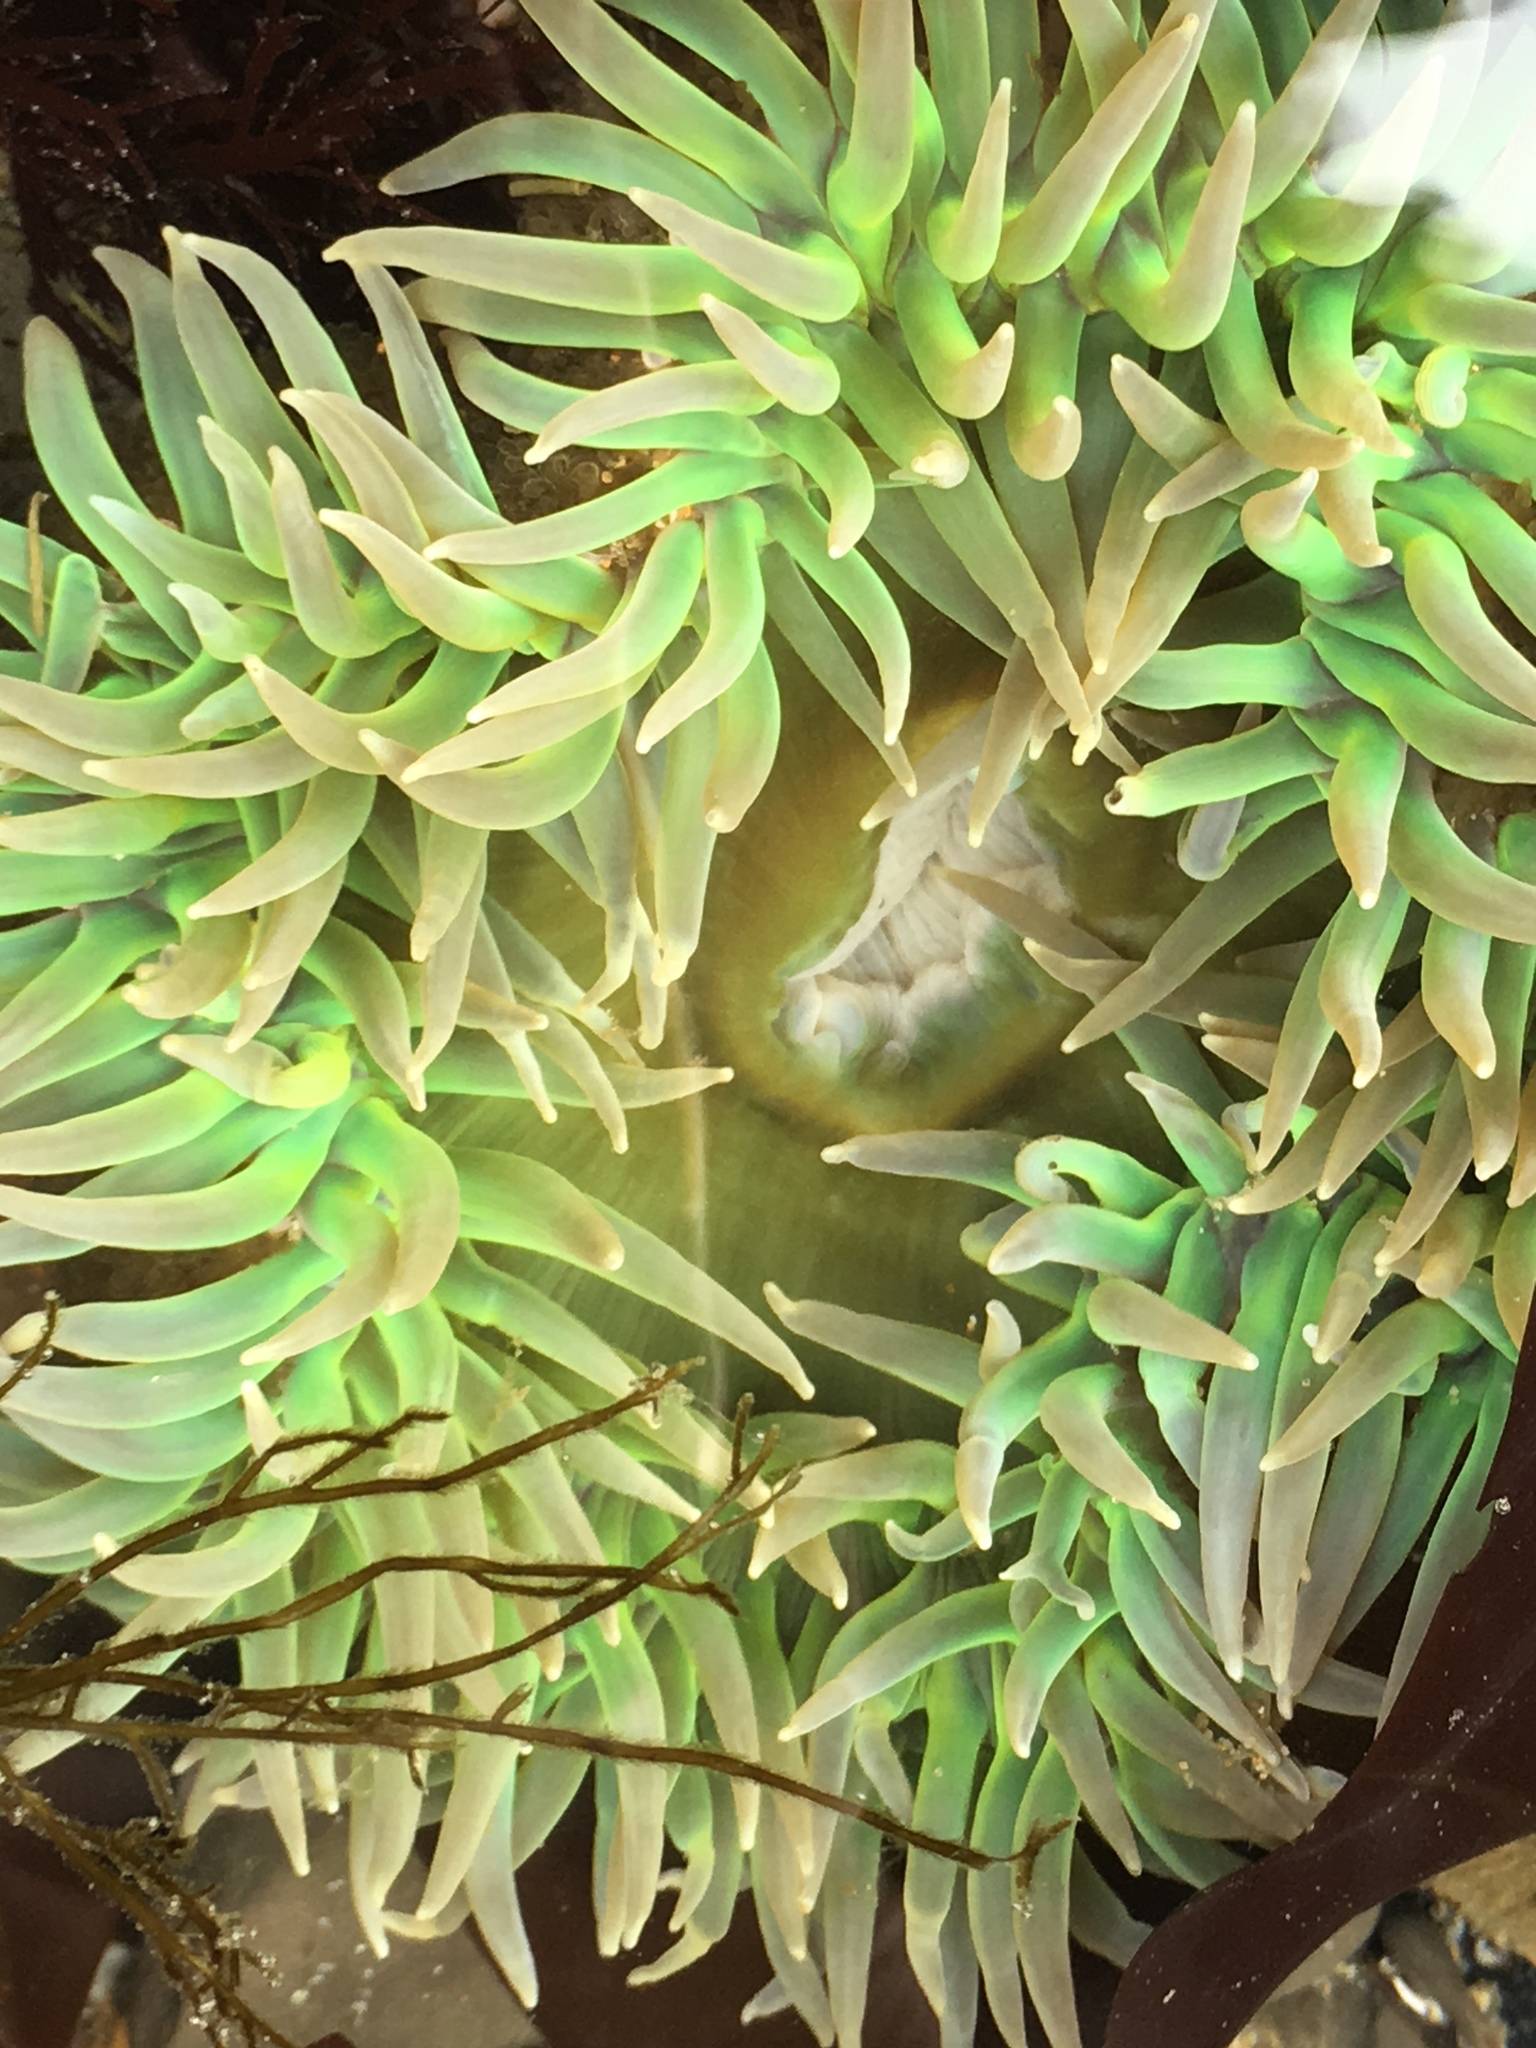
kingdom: Animalia
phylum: Cnidaria
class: Anthozoa
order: Actiniaria
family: Actiniidae
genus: Anthopleura
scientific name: Anthopleura xanthogrammica
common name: Giant green anemone
